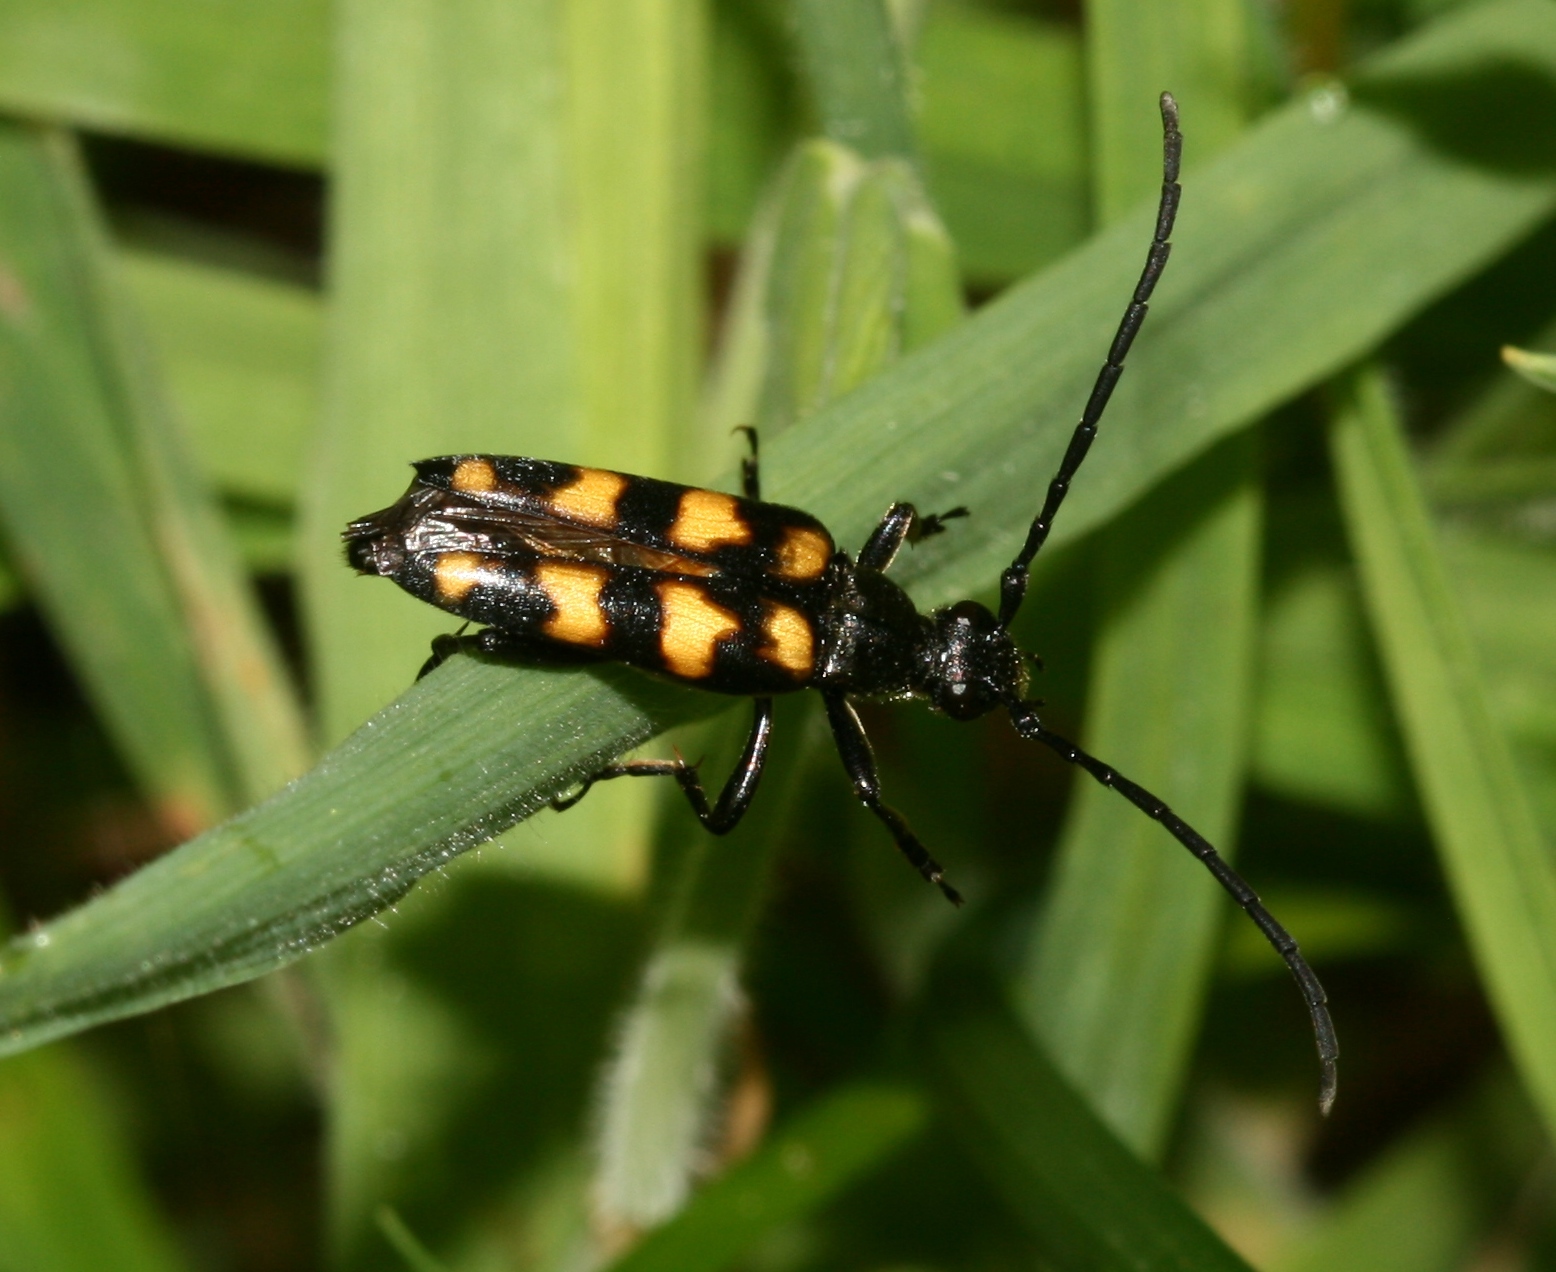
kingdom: Animalia
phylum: Arthropoda
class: Insecta
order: Coleoptera
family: Cerambycidae
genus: Leptura
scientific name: Leptura quadrifasciata
